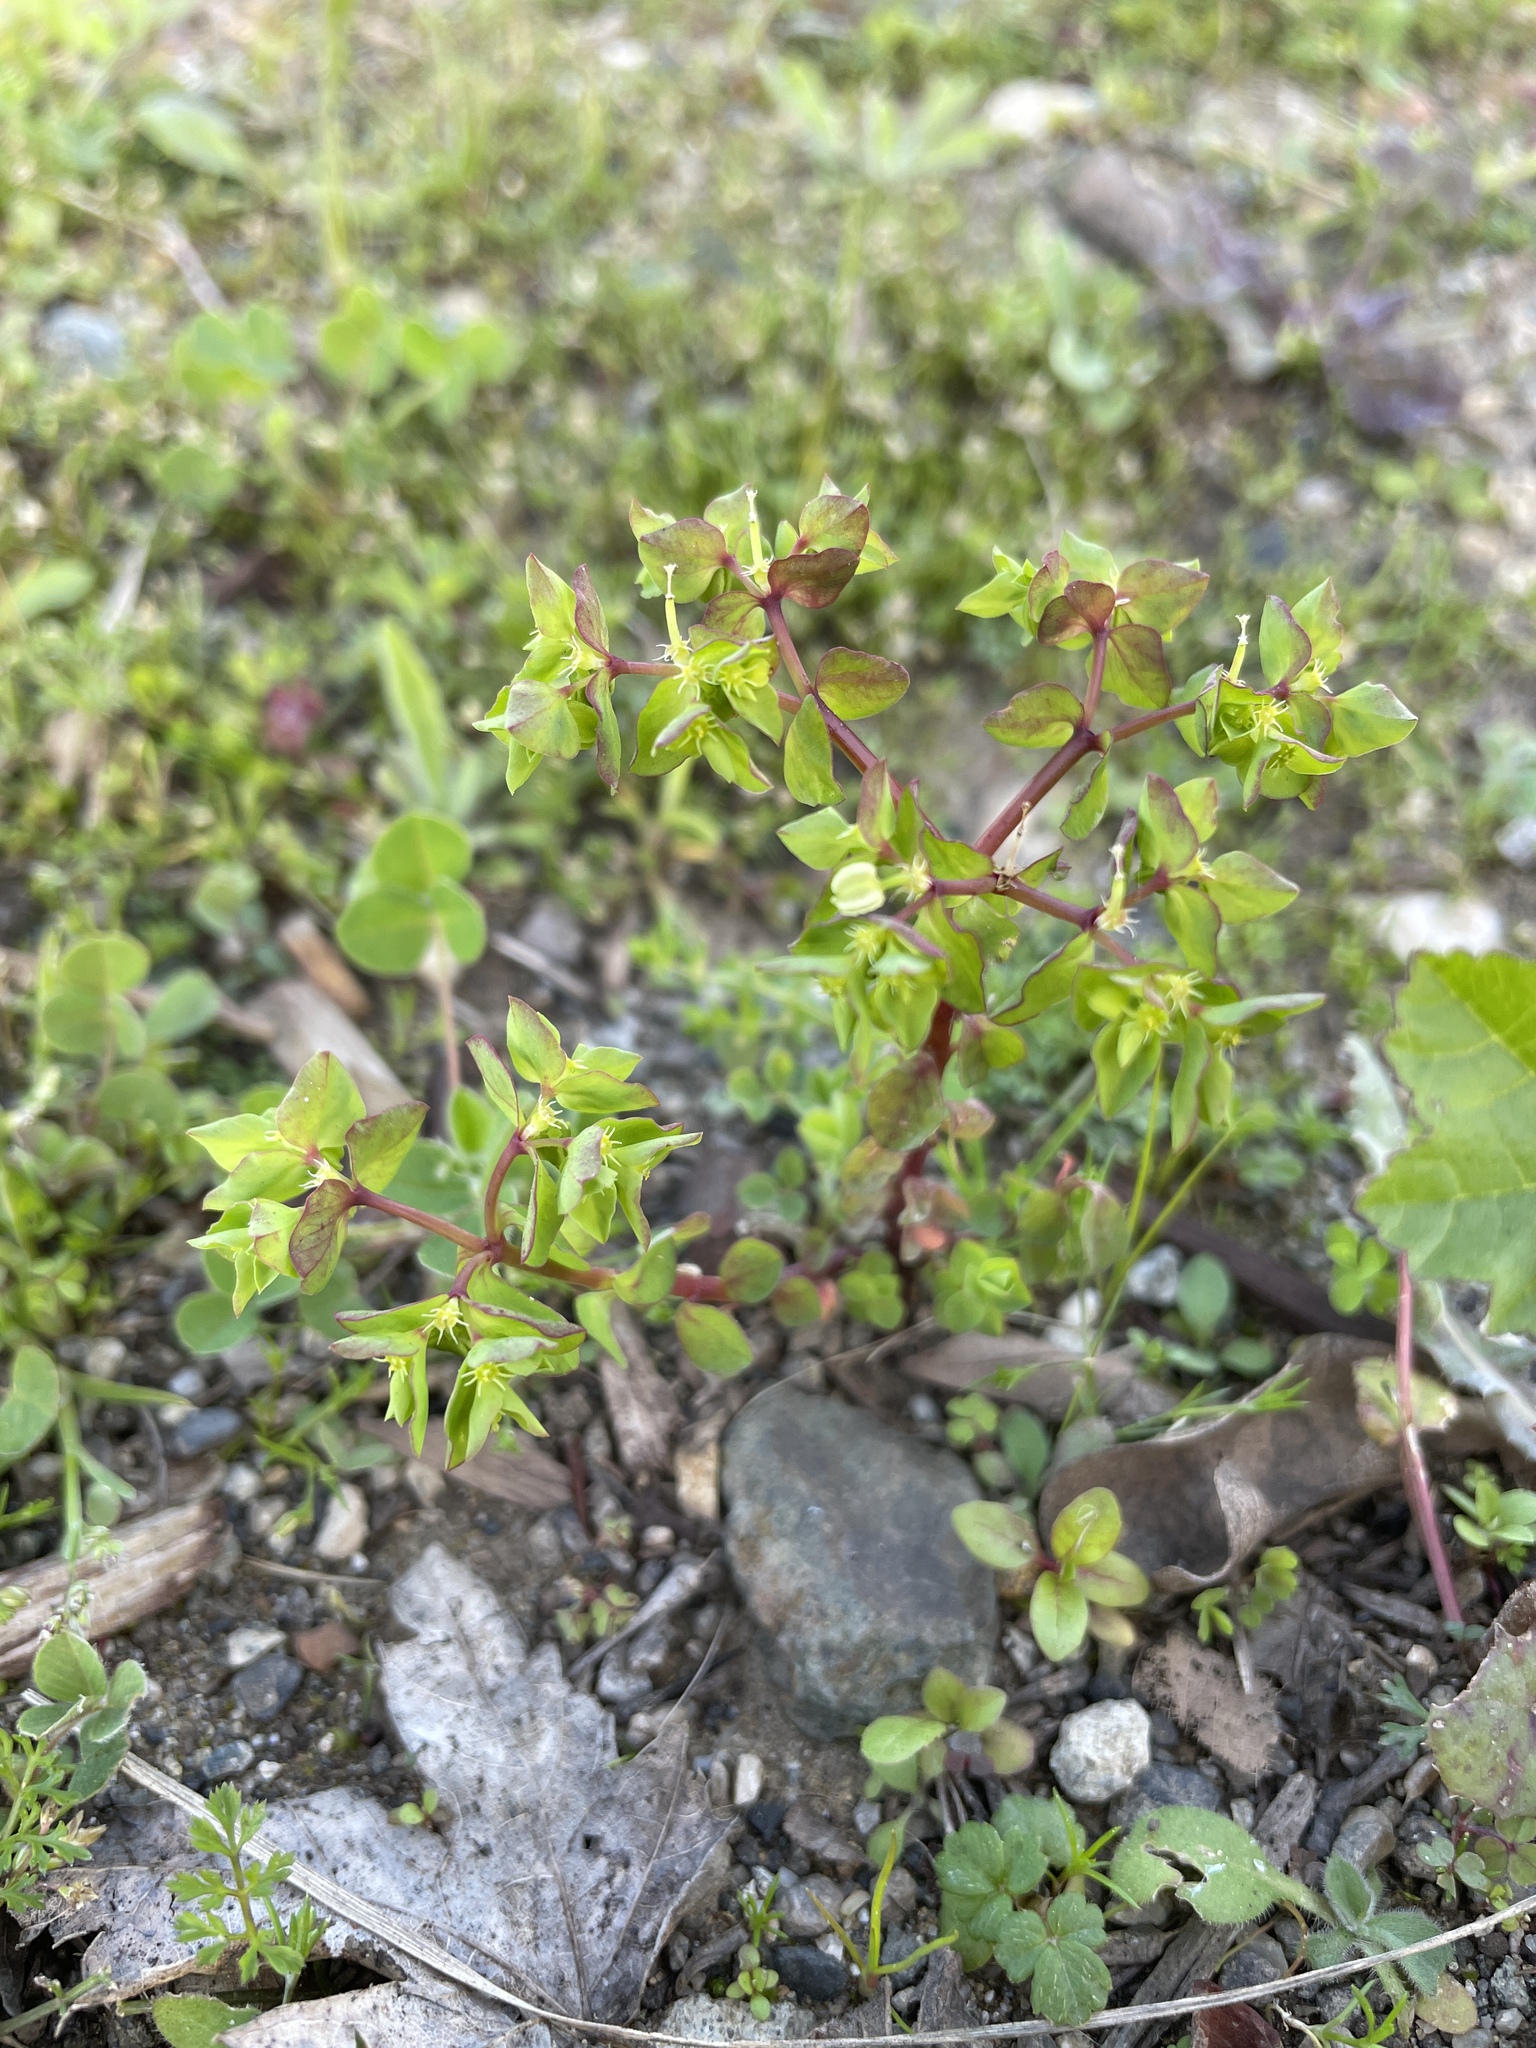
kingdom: Plantae
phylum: Tracheophyta
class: Magnoliopsida
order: Malpighiales
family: Euphorbiaceae
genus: Euphorbia
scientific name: Euphorbia peplus
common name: Petty spurge
